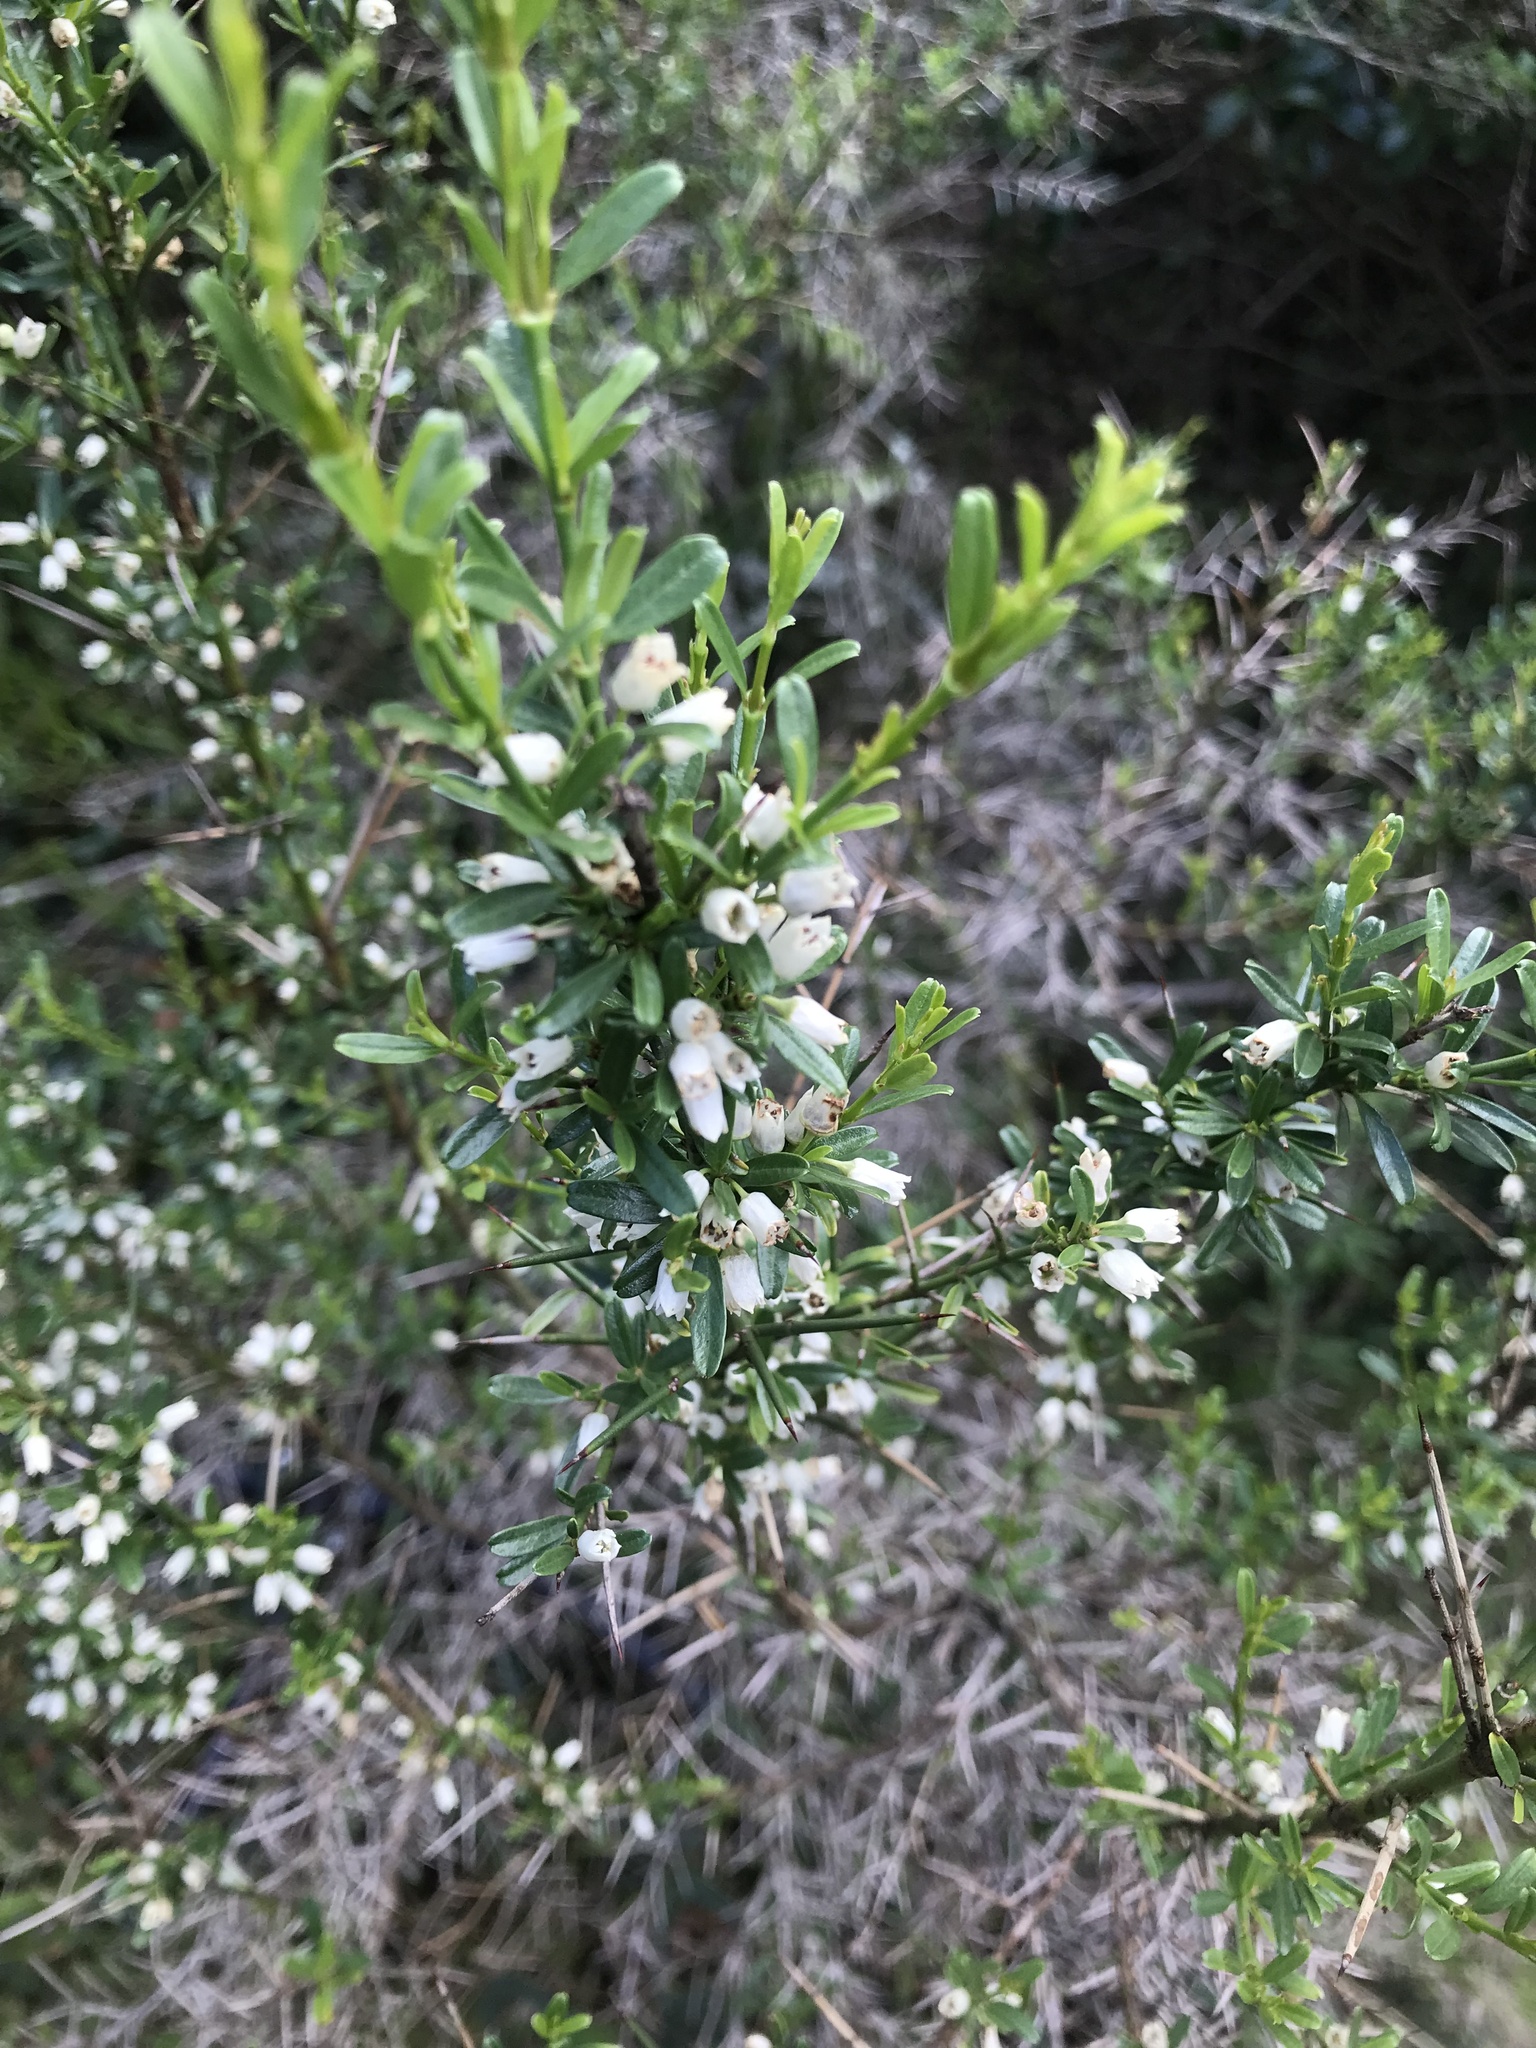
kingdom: Plantae
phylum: Tracheophyta
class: Magnoliopsida
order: Rosales
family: Rhamnaceae
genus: Discaria
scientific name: Discaria americana
